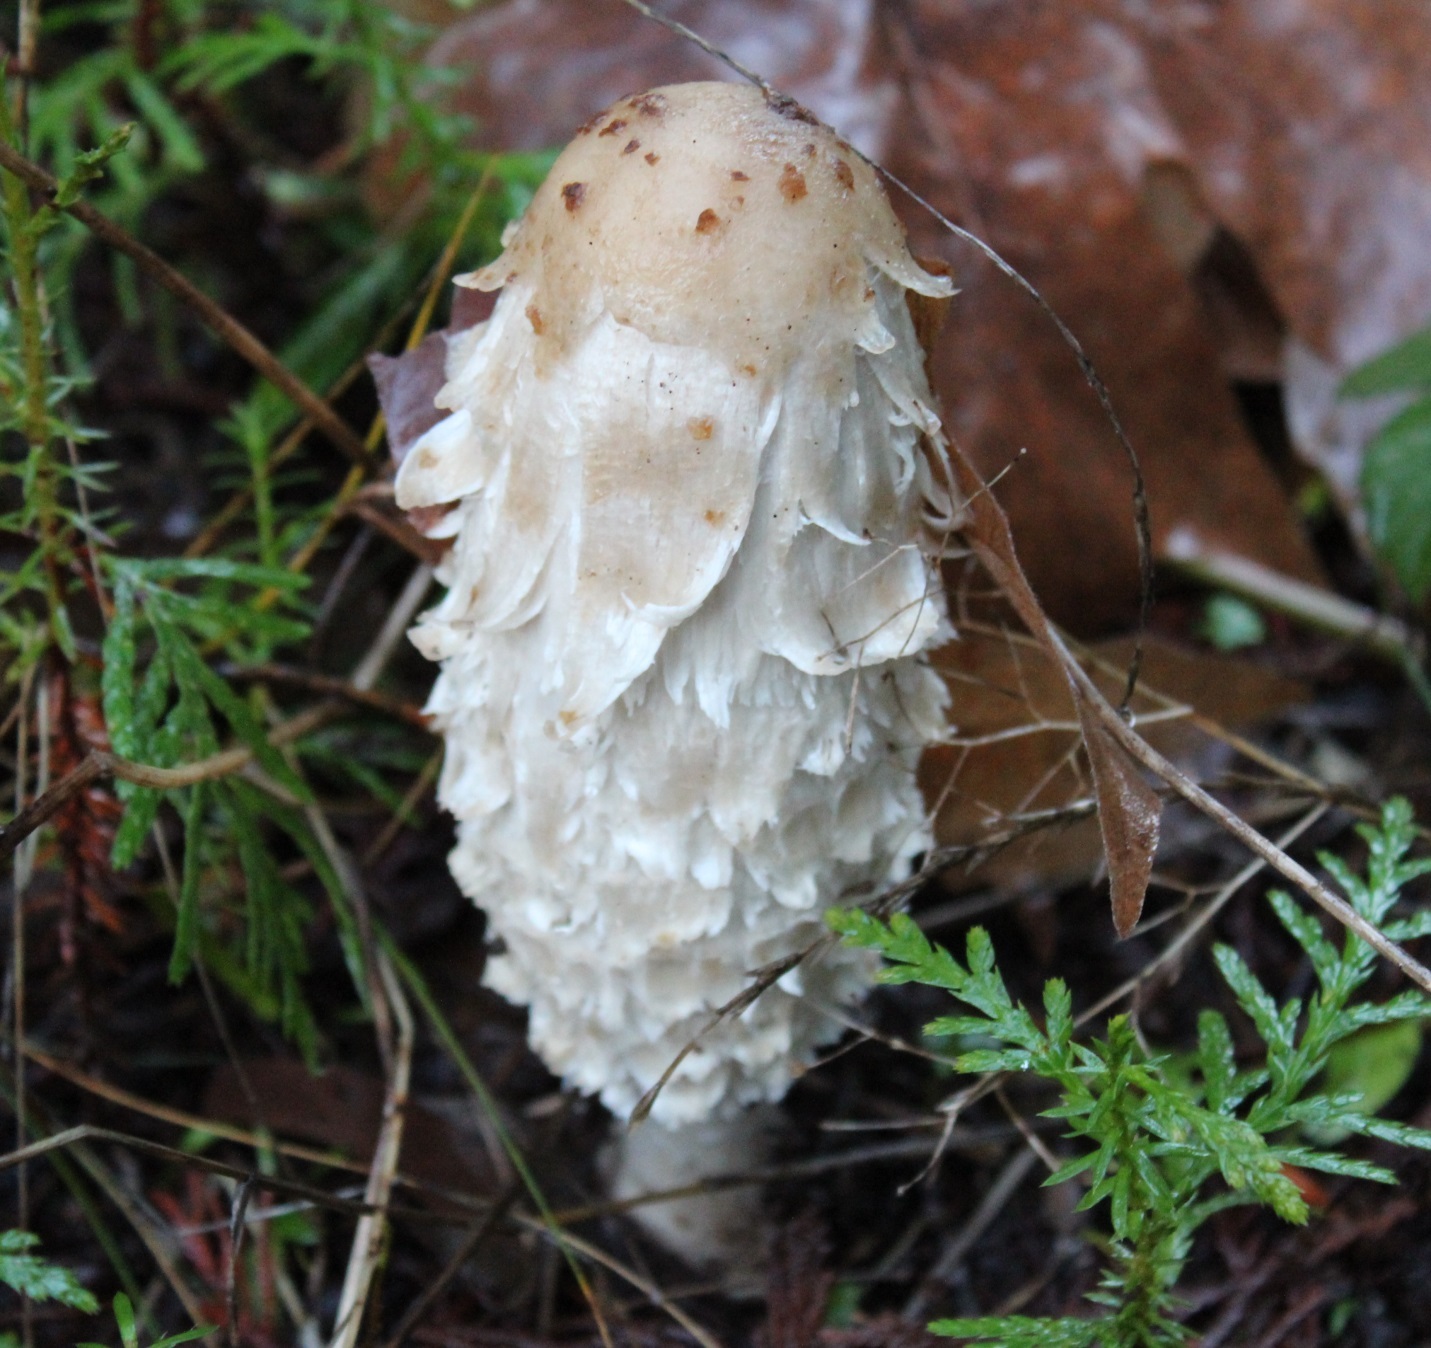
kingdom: Fungi
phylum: Basidiomycota
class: Agaricomycetes
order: Agaricales
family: Agaricaceae
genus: Coprinus
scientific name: Coprinus comatus
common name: Lawyer's wig
